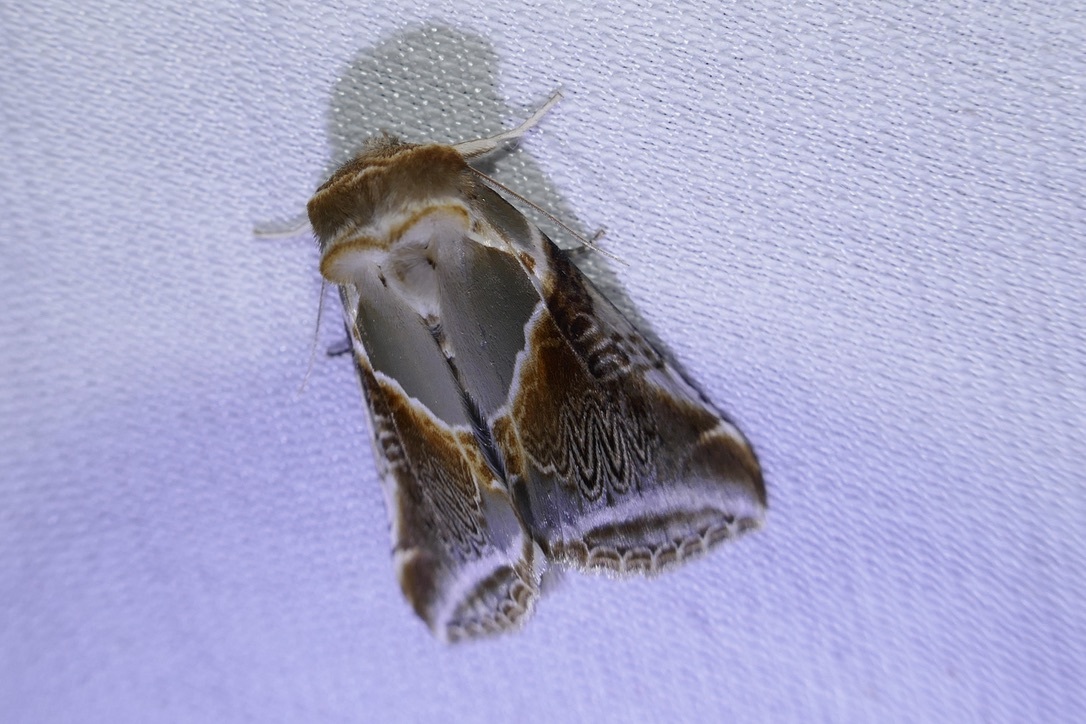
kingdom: Animalia
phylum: Arthropoda
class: Insecta
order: Lepidoptera
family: Drepanidae
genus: Habrosyne
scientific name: Habrosyne pyritoides
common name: Buff arches
